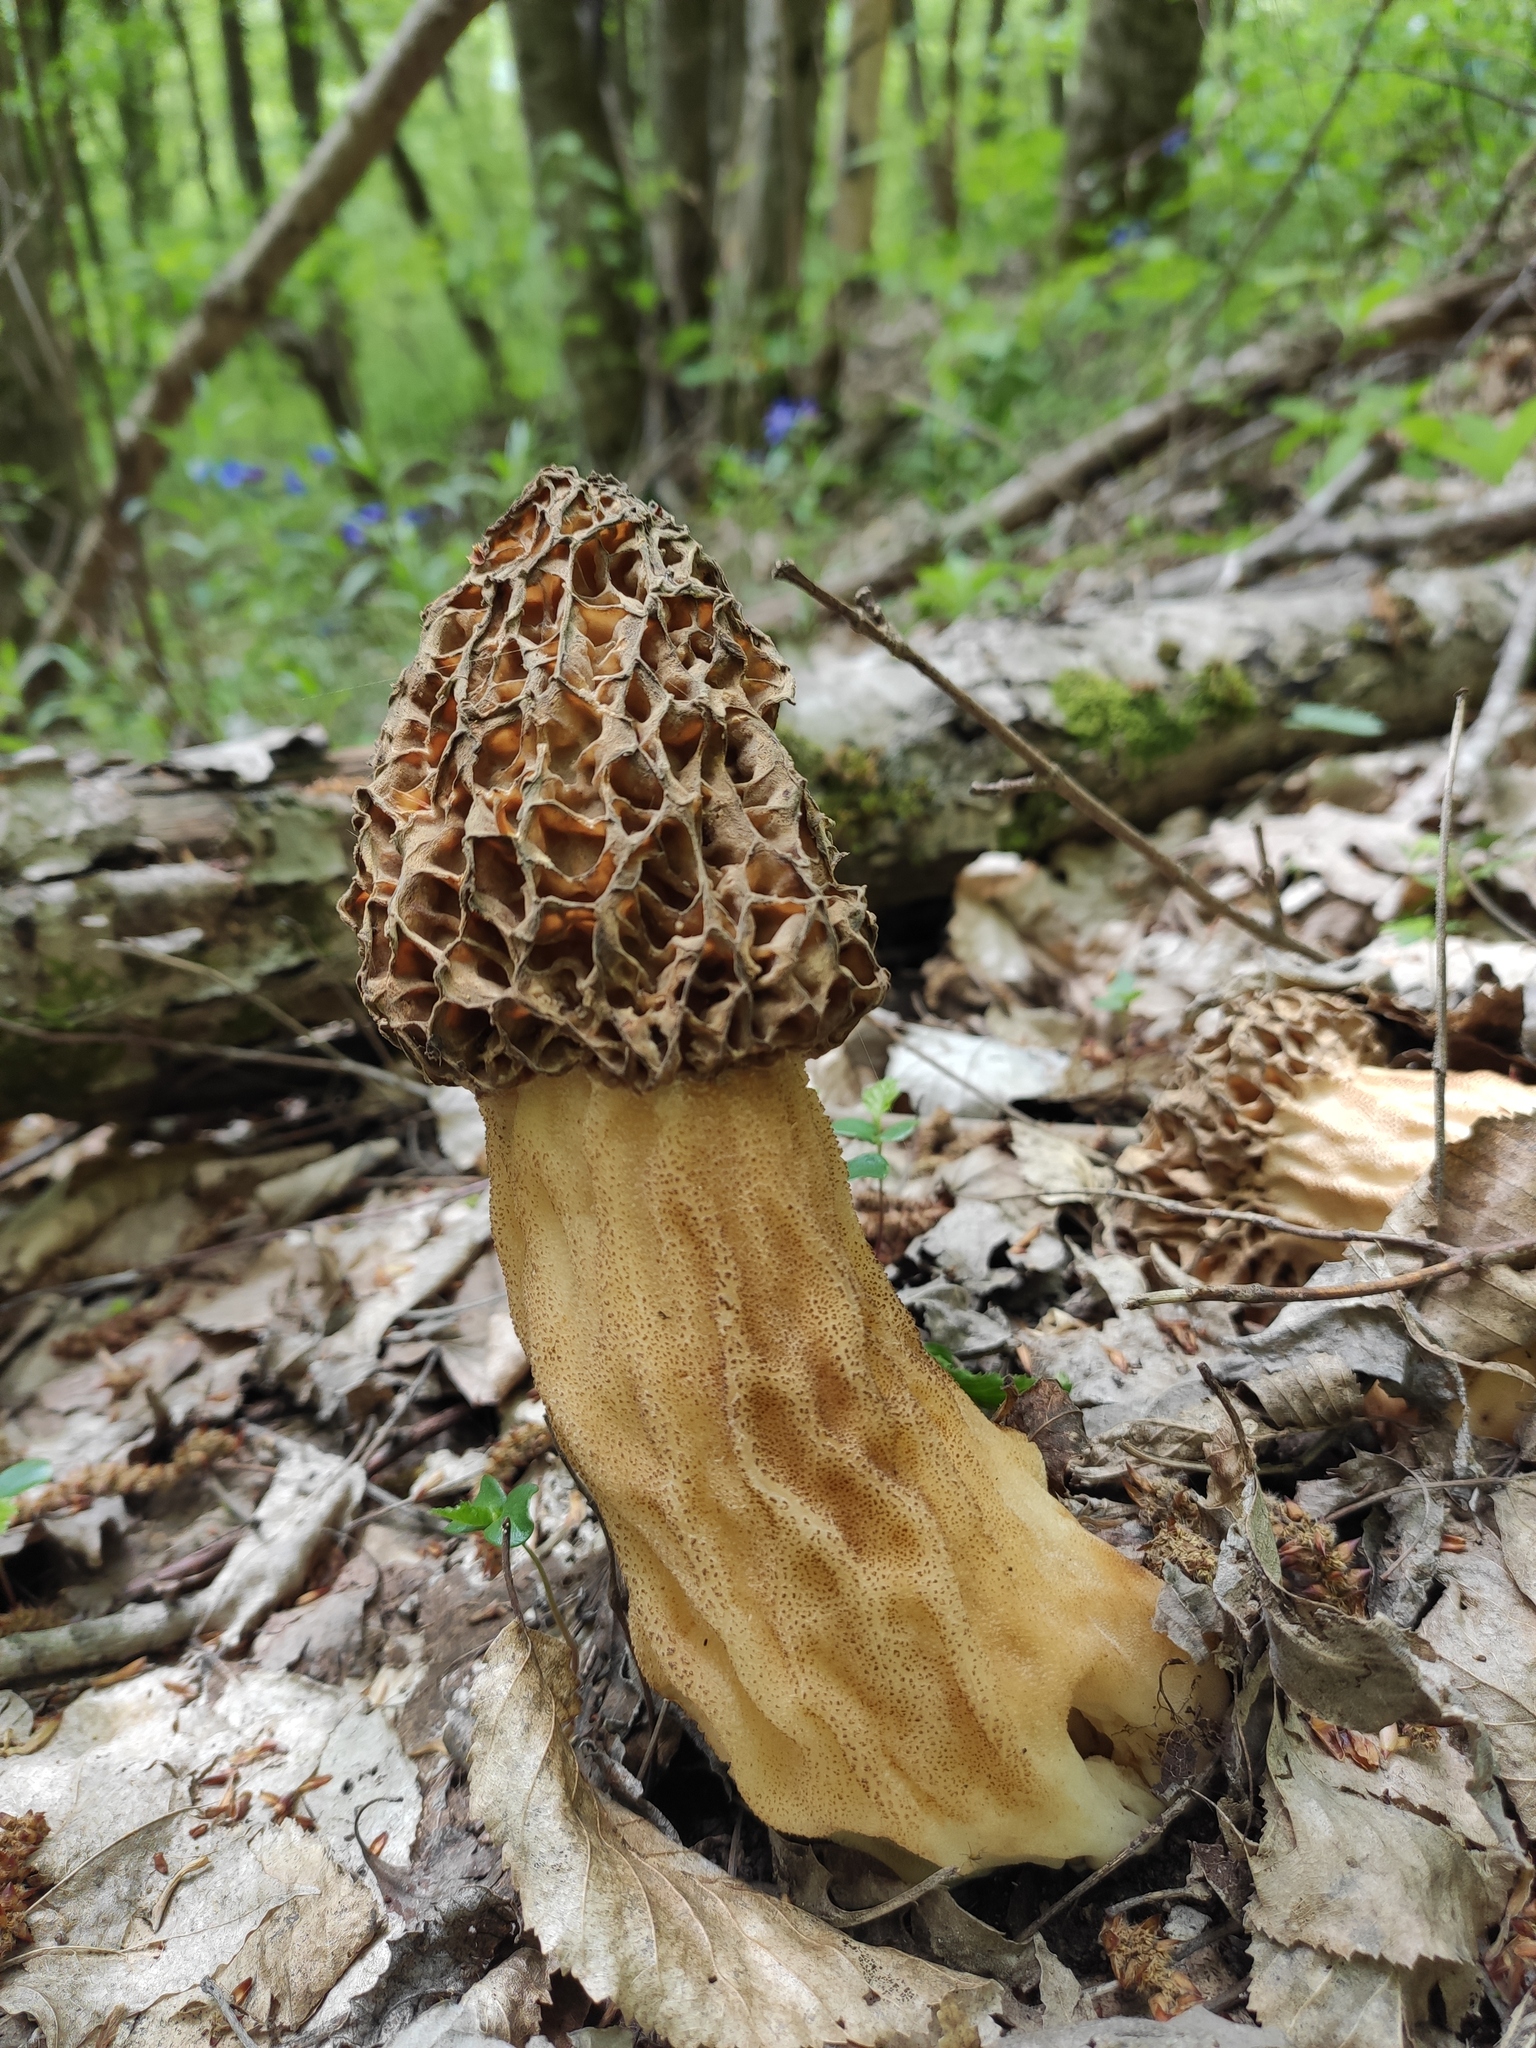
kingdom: Fungi
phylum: Ascomycota
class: Pezizomycetes
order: Pezizales
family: Morchellaceae
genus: Morchella
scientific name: Morchella
